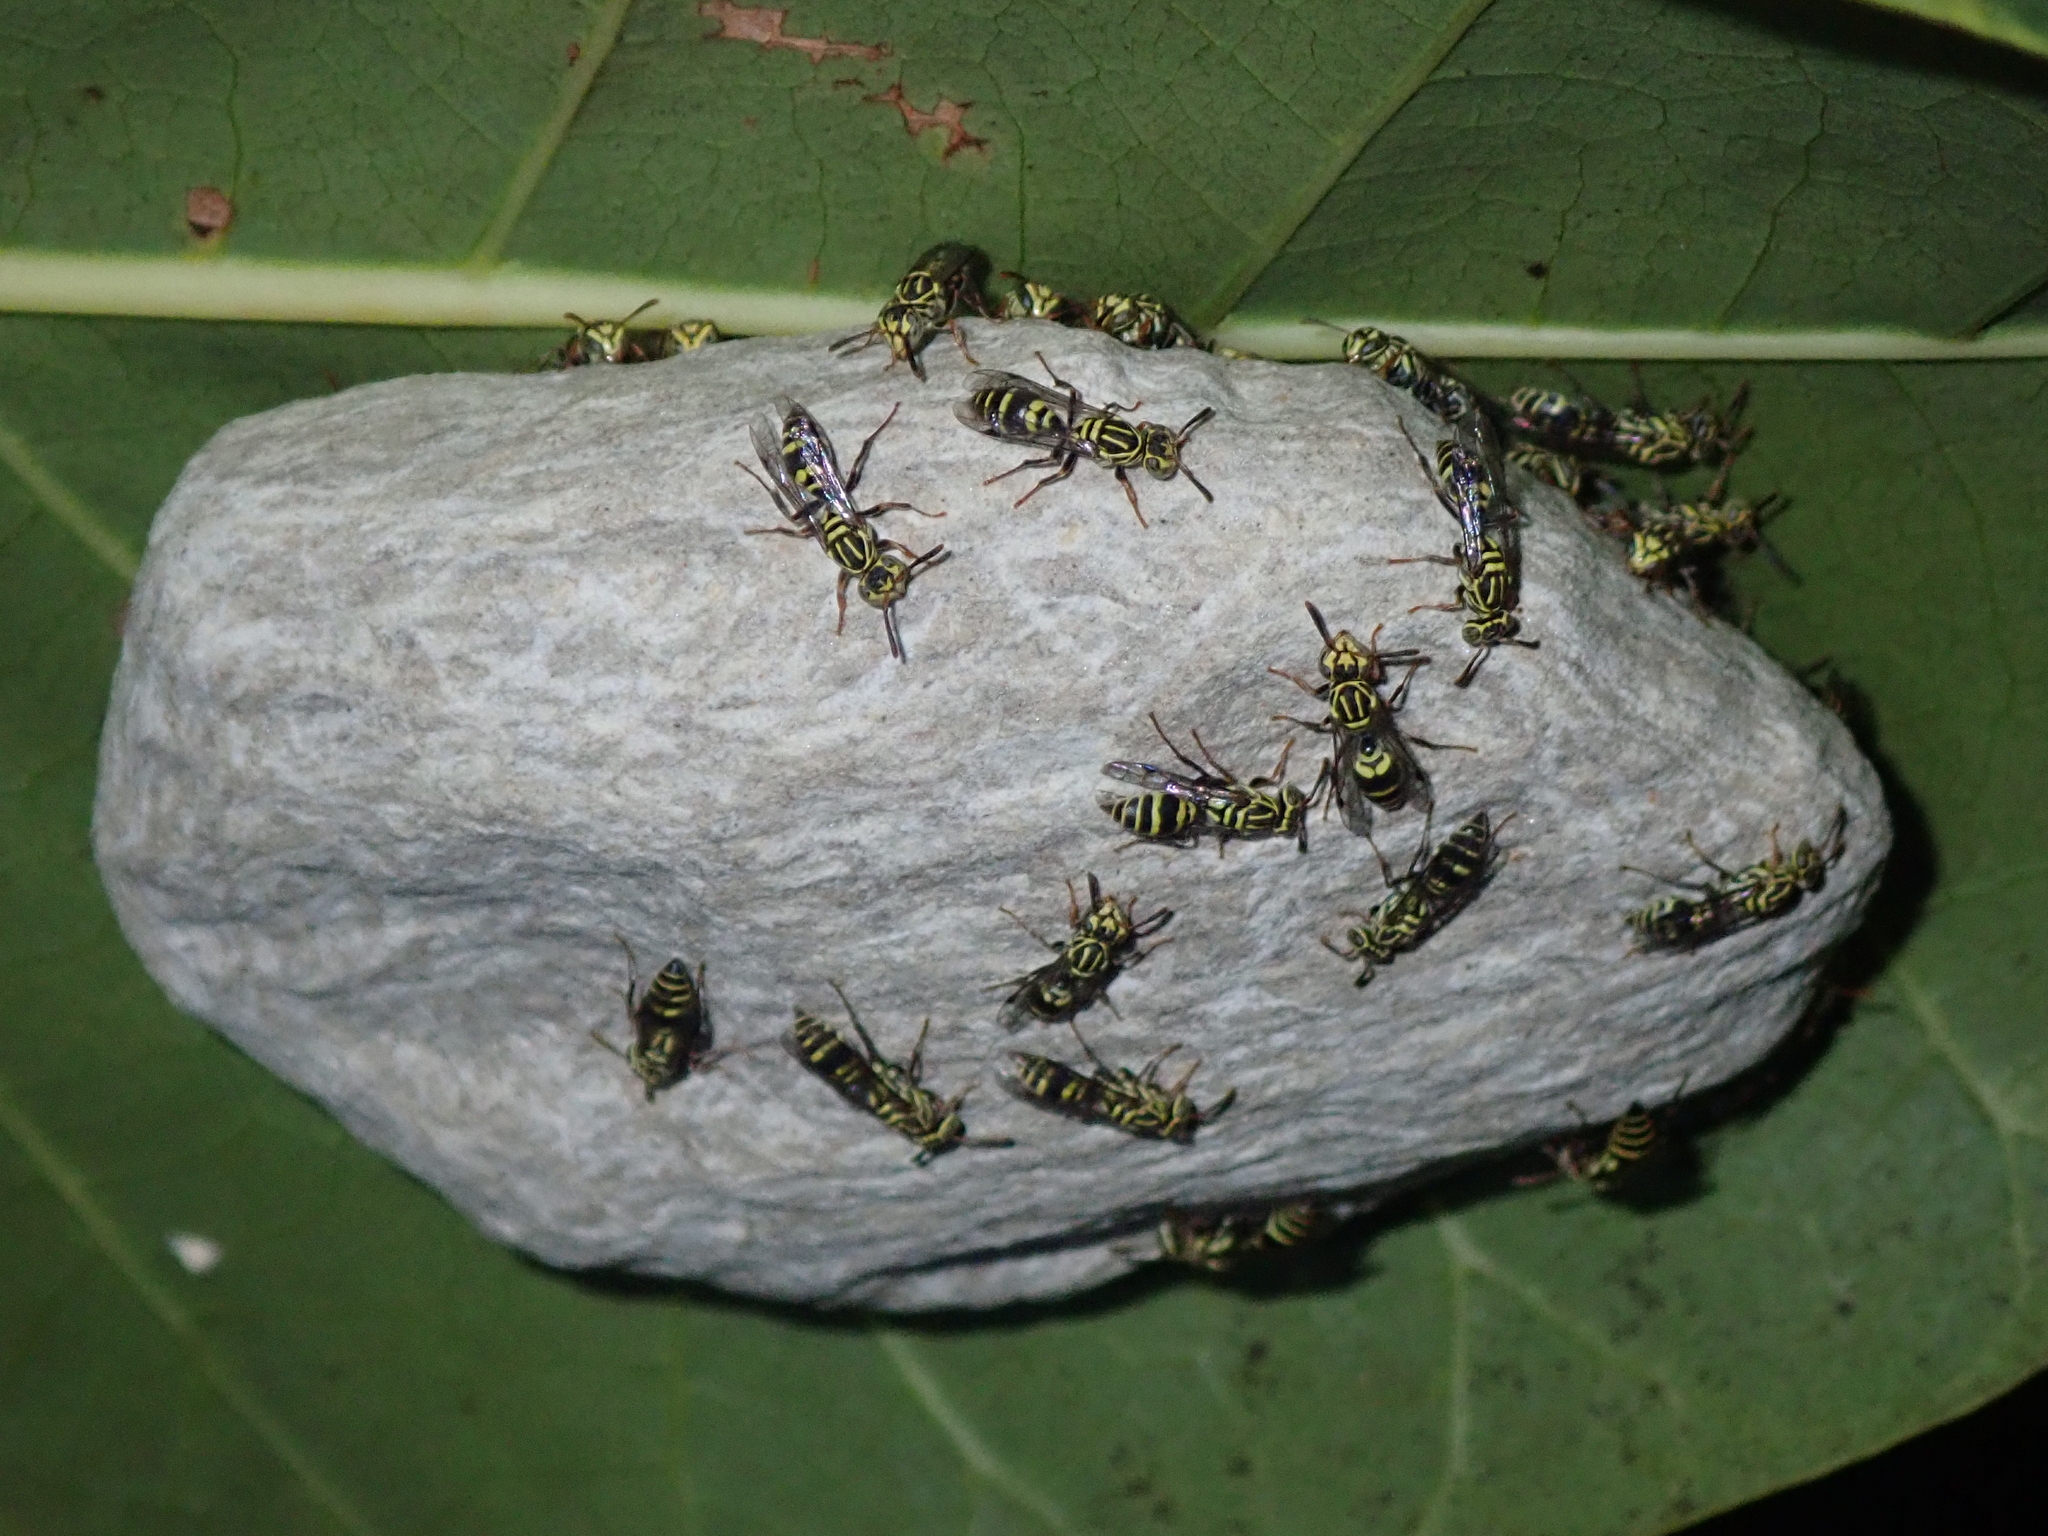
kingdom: Animalia
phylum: Arthropoda
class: Insecta
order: Hymenoptera
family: Vespidae
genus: Protopolybia
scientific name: Protopolybia exigua
